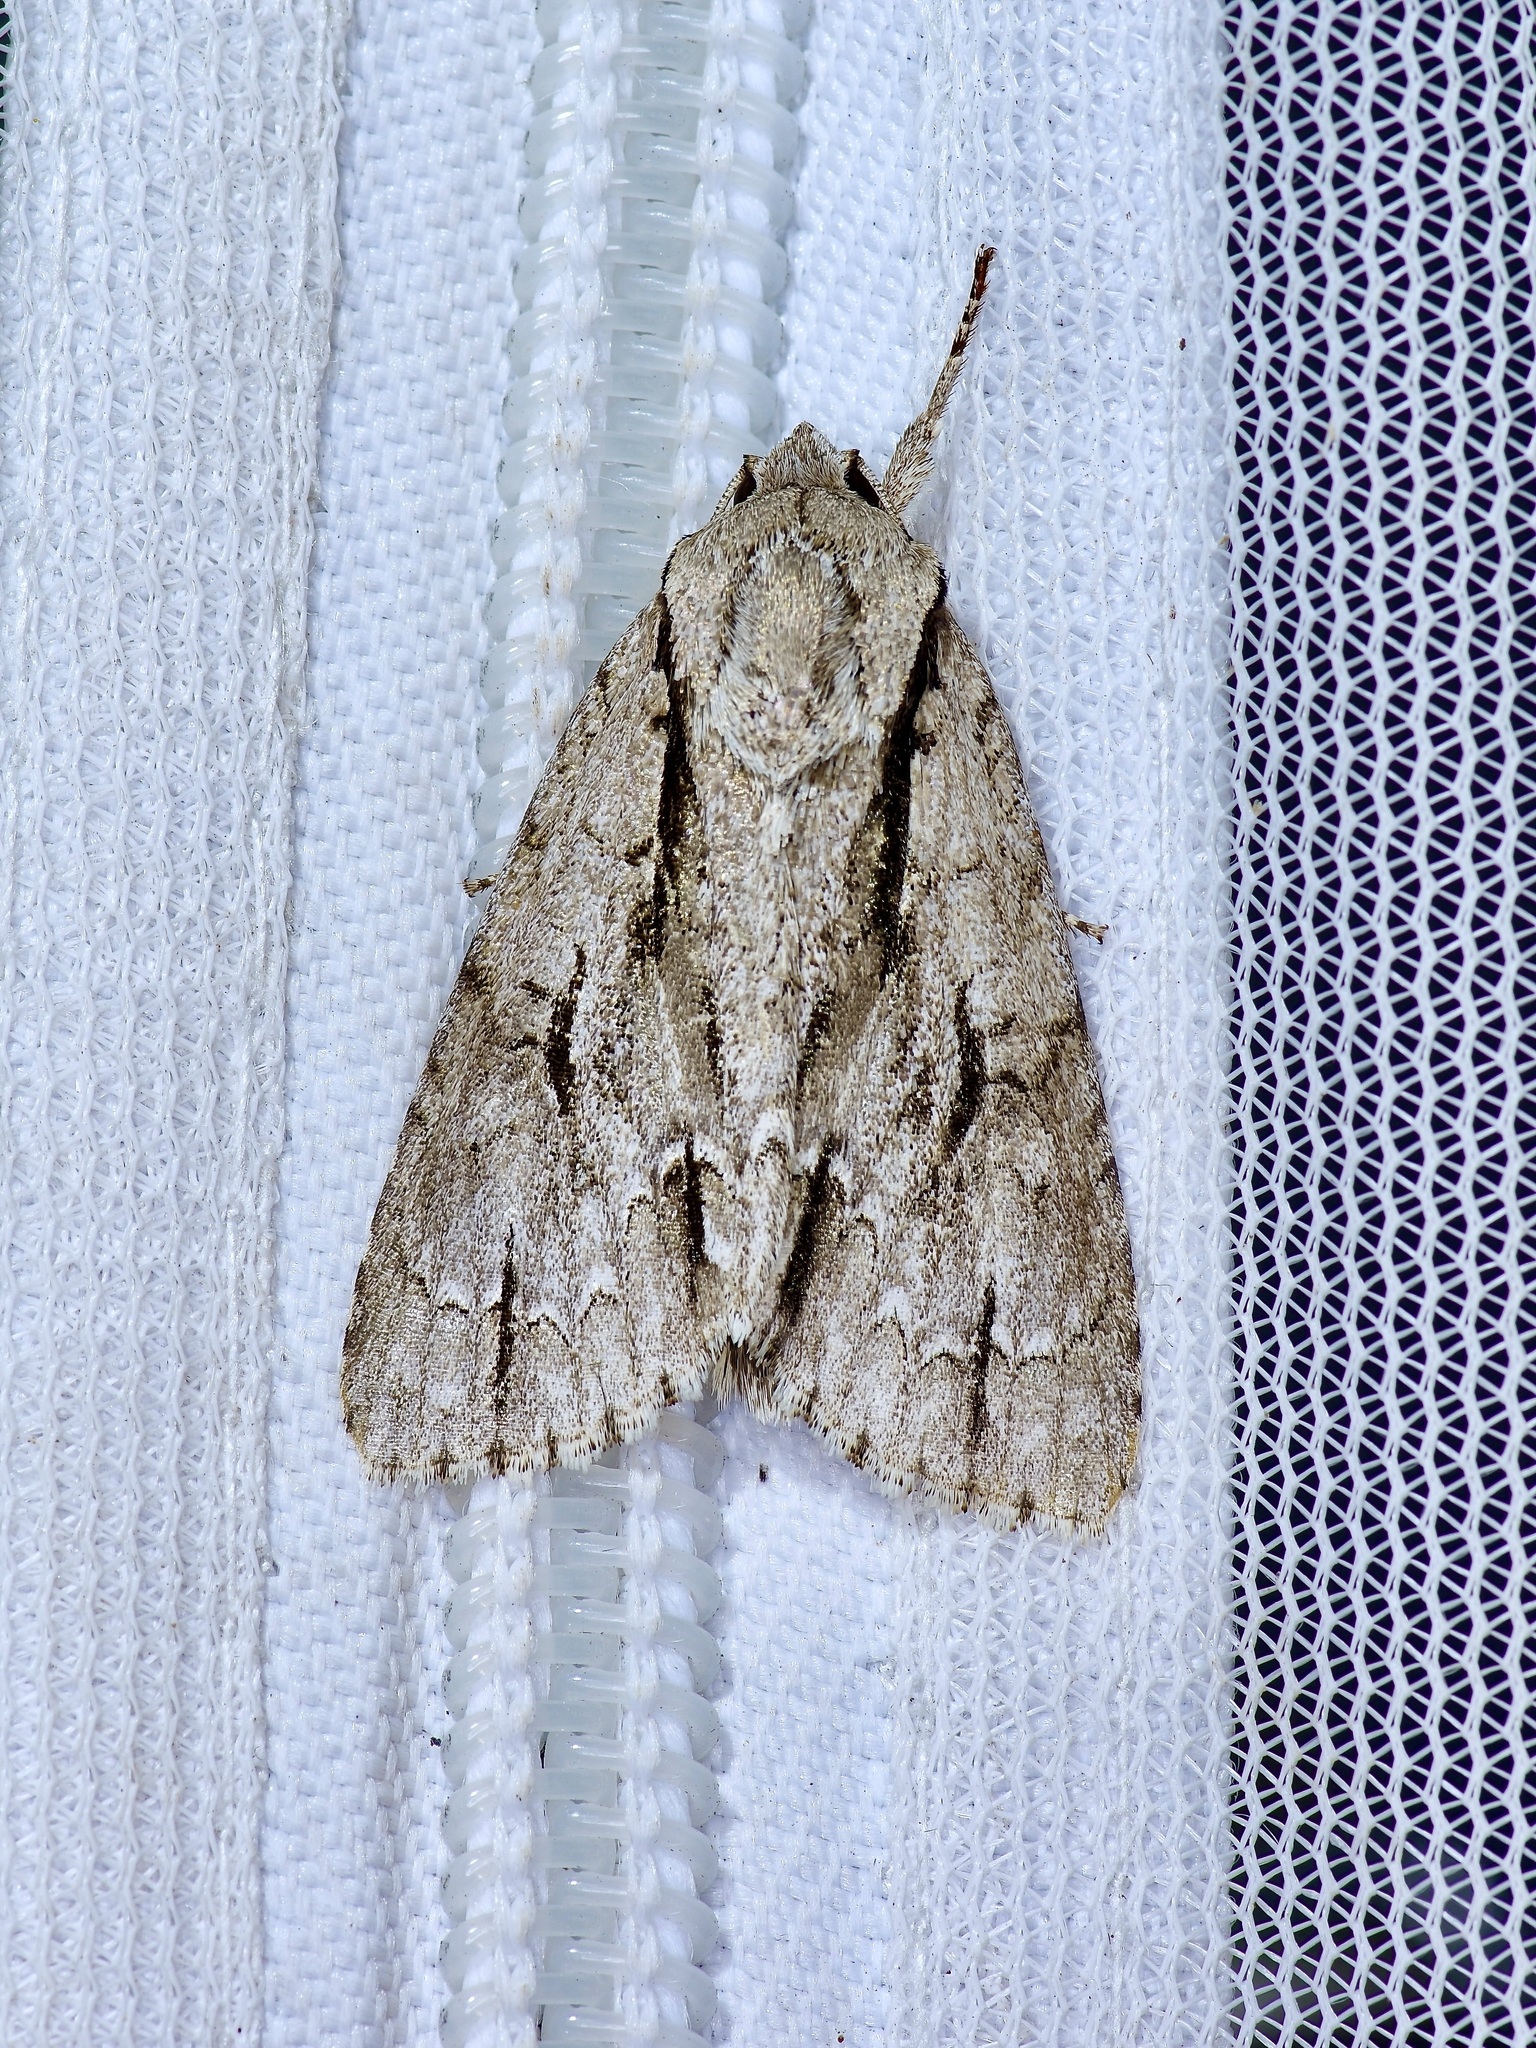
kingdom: Animalia
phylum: Arthropoda
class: Insecta
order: Lepidoptera
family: Noctuidae
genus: Acronicta
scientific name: Acronicta lobeliae
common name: Greater oak dagger
